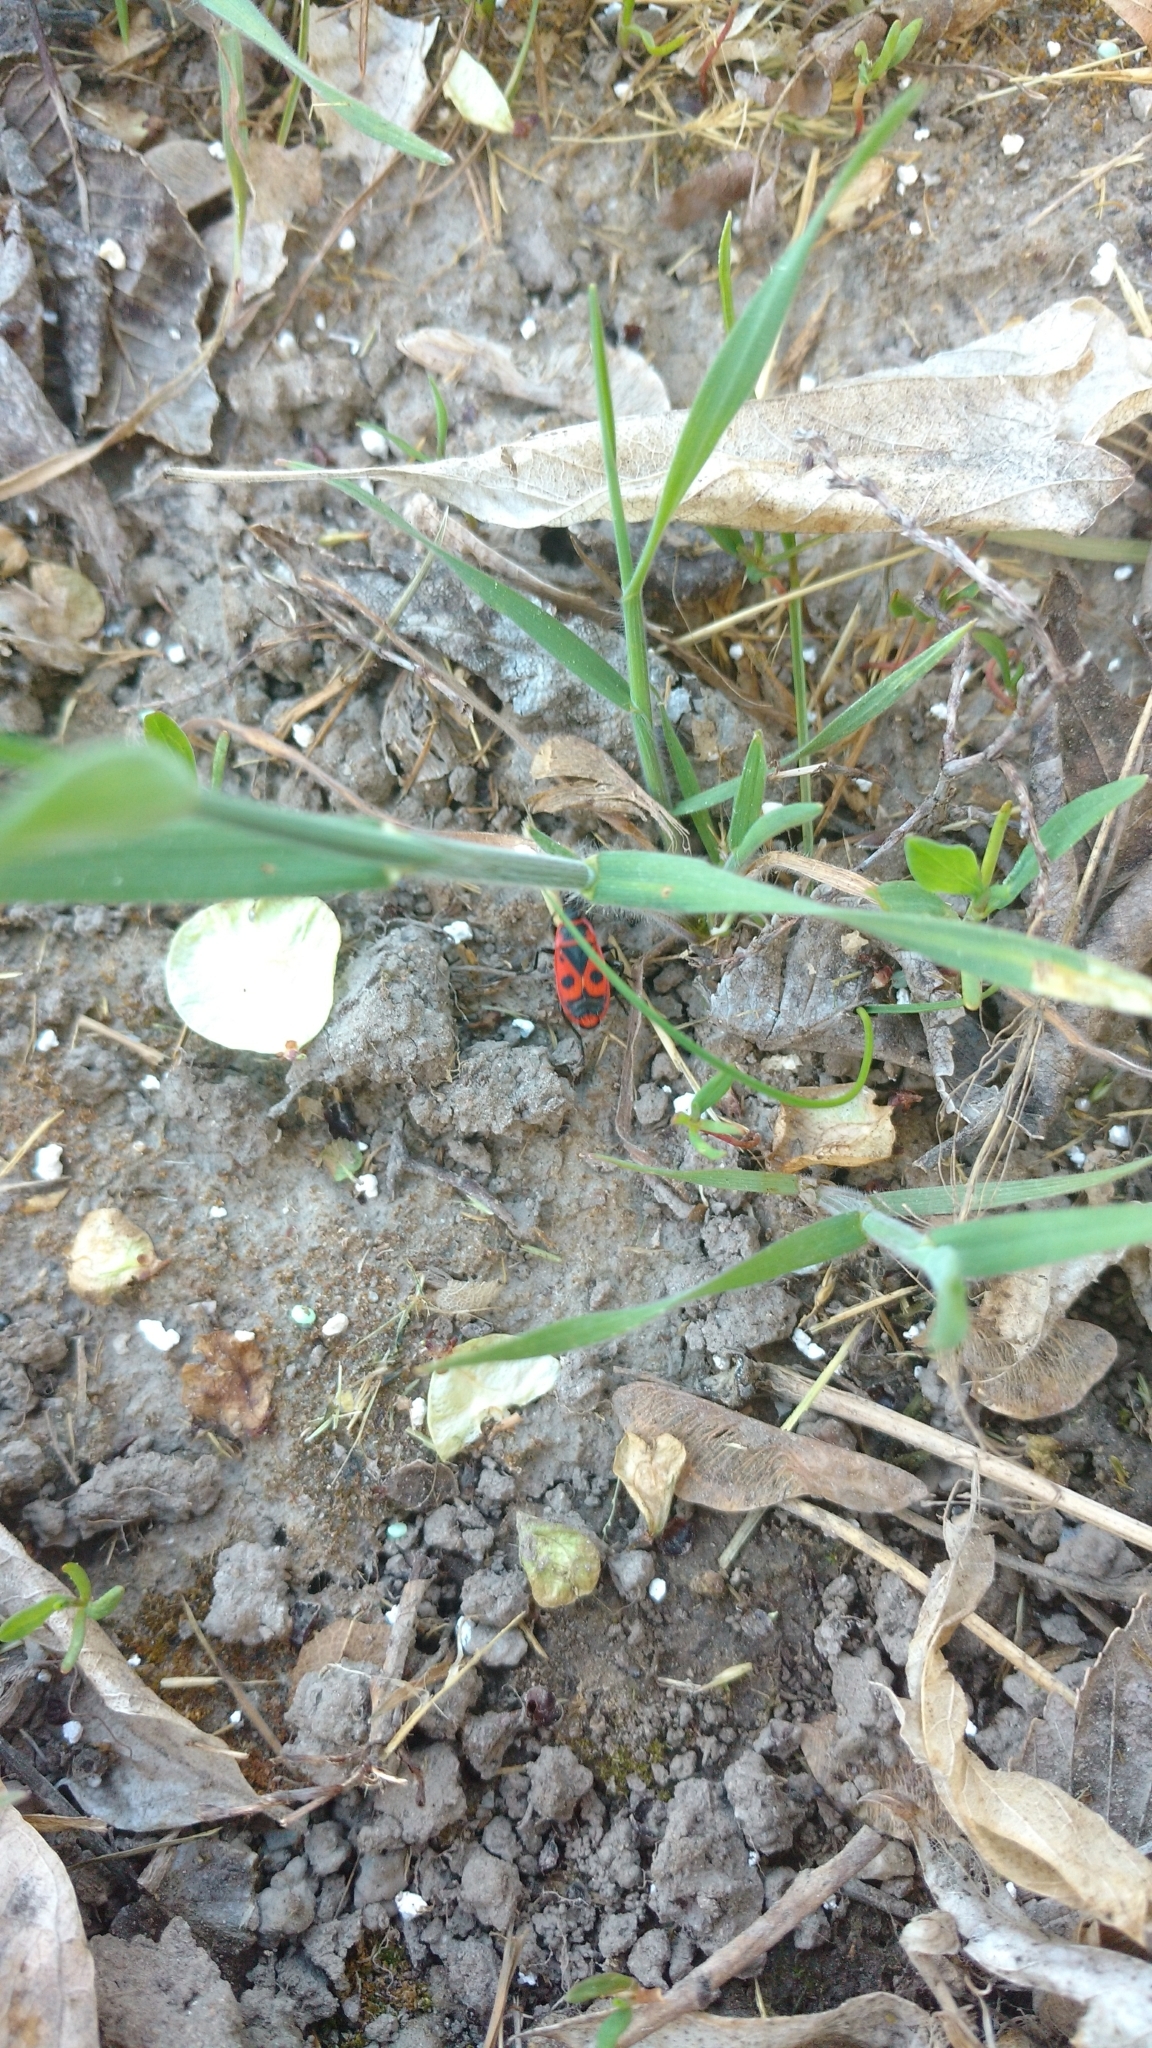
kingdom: Animalia
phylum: Arthropoda
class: Insecta
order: Hemiptera
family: Pyrrhocoridae
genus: Pyrrhocoris
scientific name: Pyrrhocoris apterus
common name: Firebug
